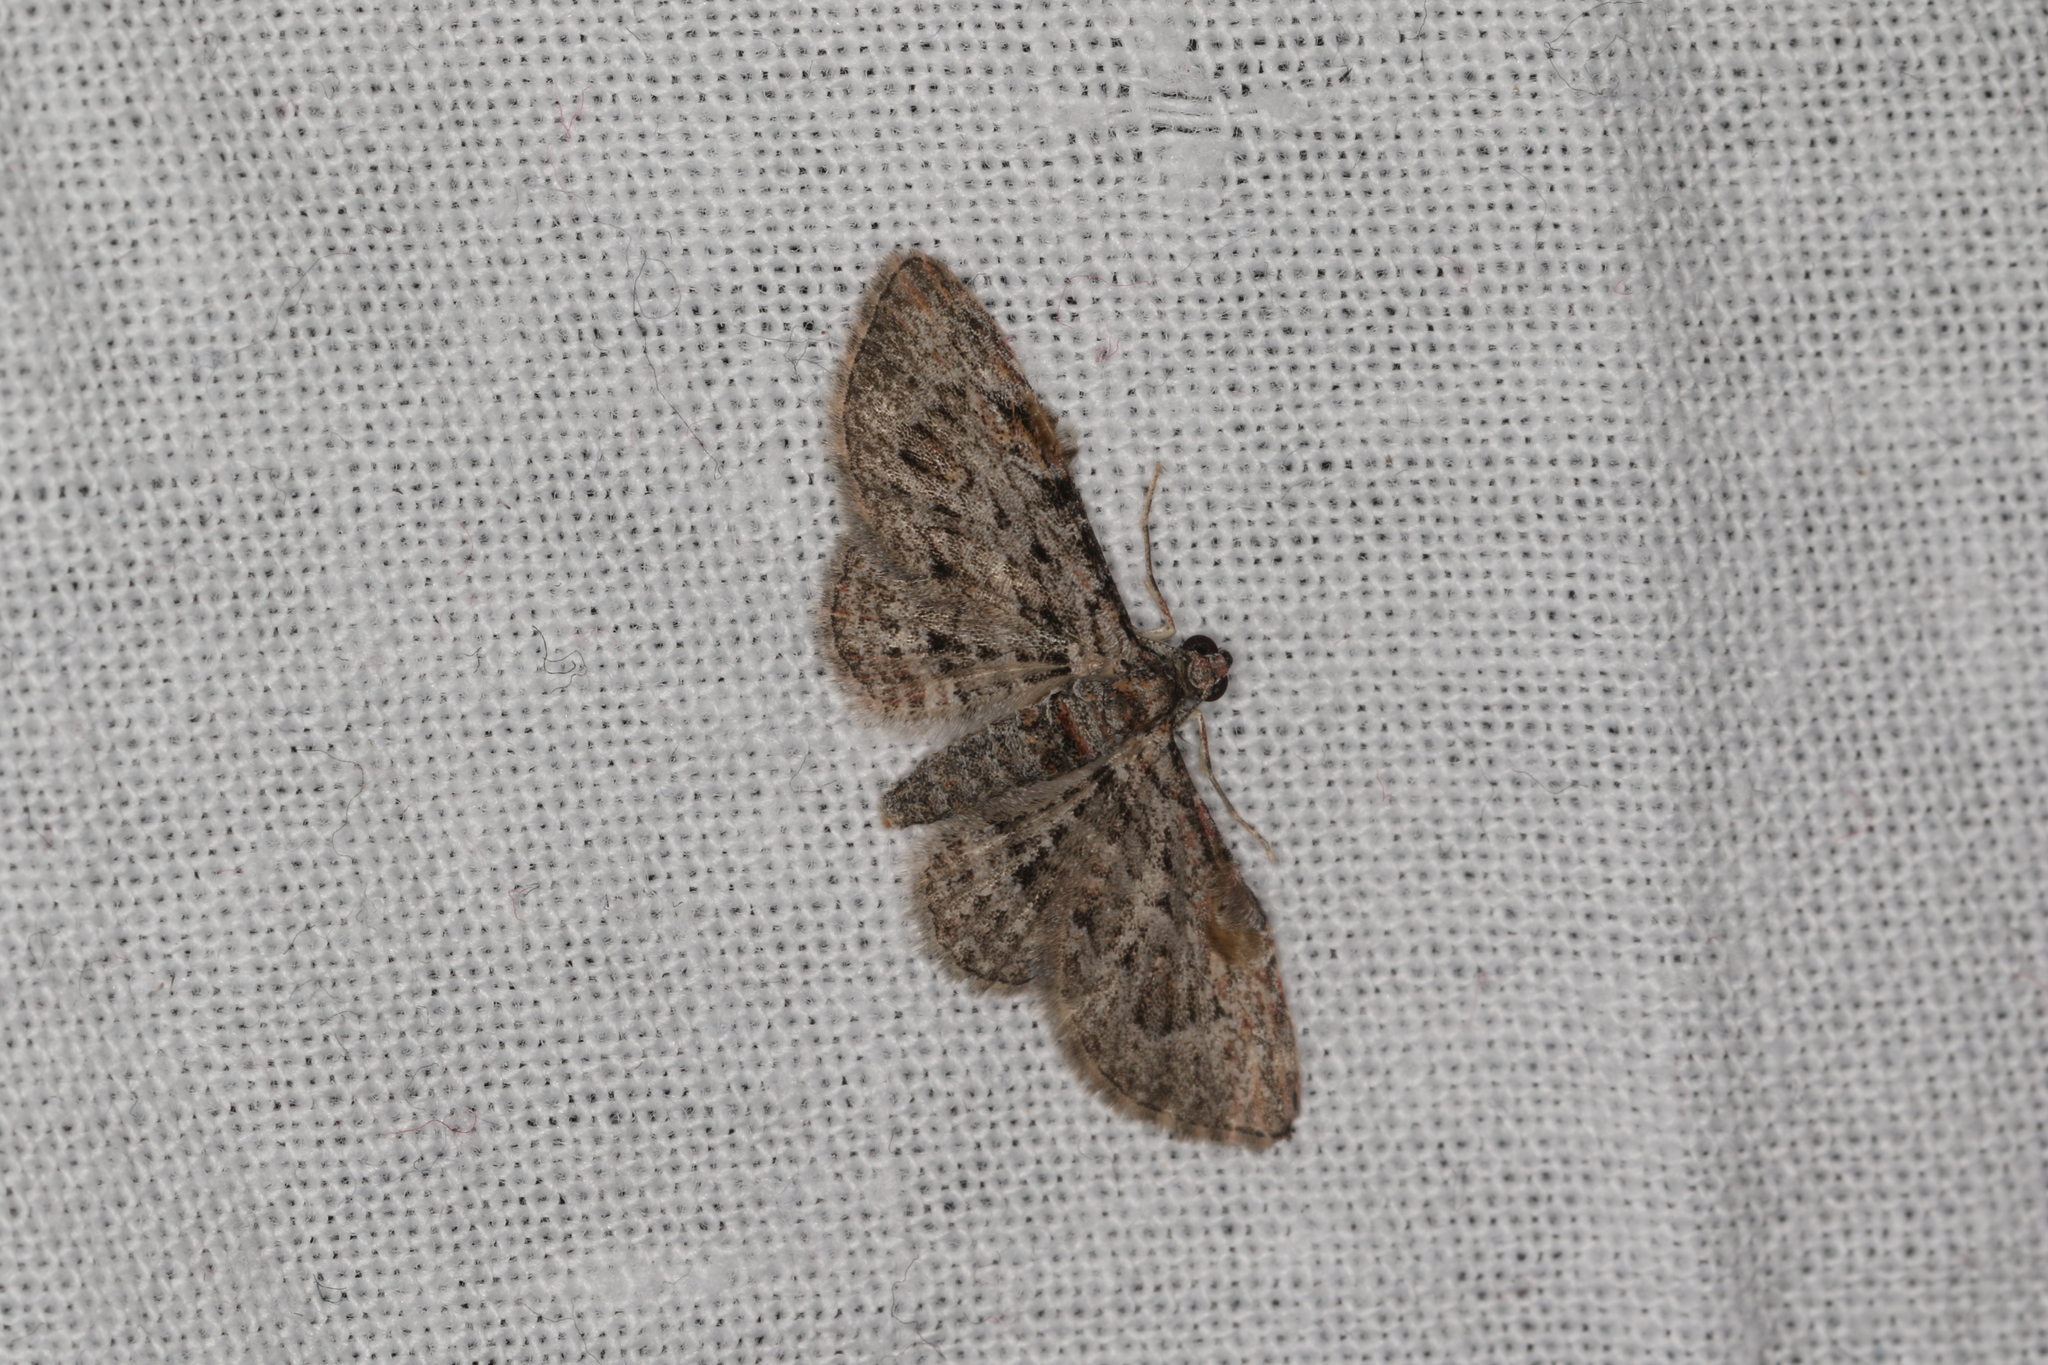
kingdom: Animalia
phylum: Arthropoda
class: Insecta
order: Lepidoptera
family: Geometridae
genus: Chloroclystis
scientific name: Chloroclystis insigillata
